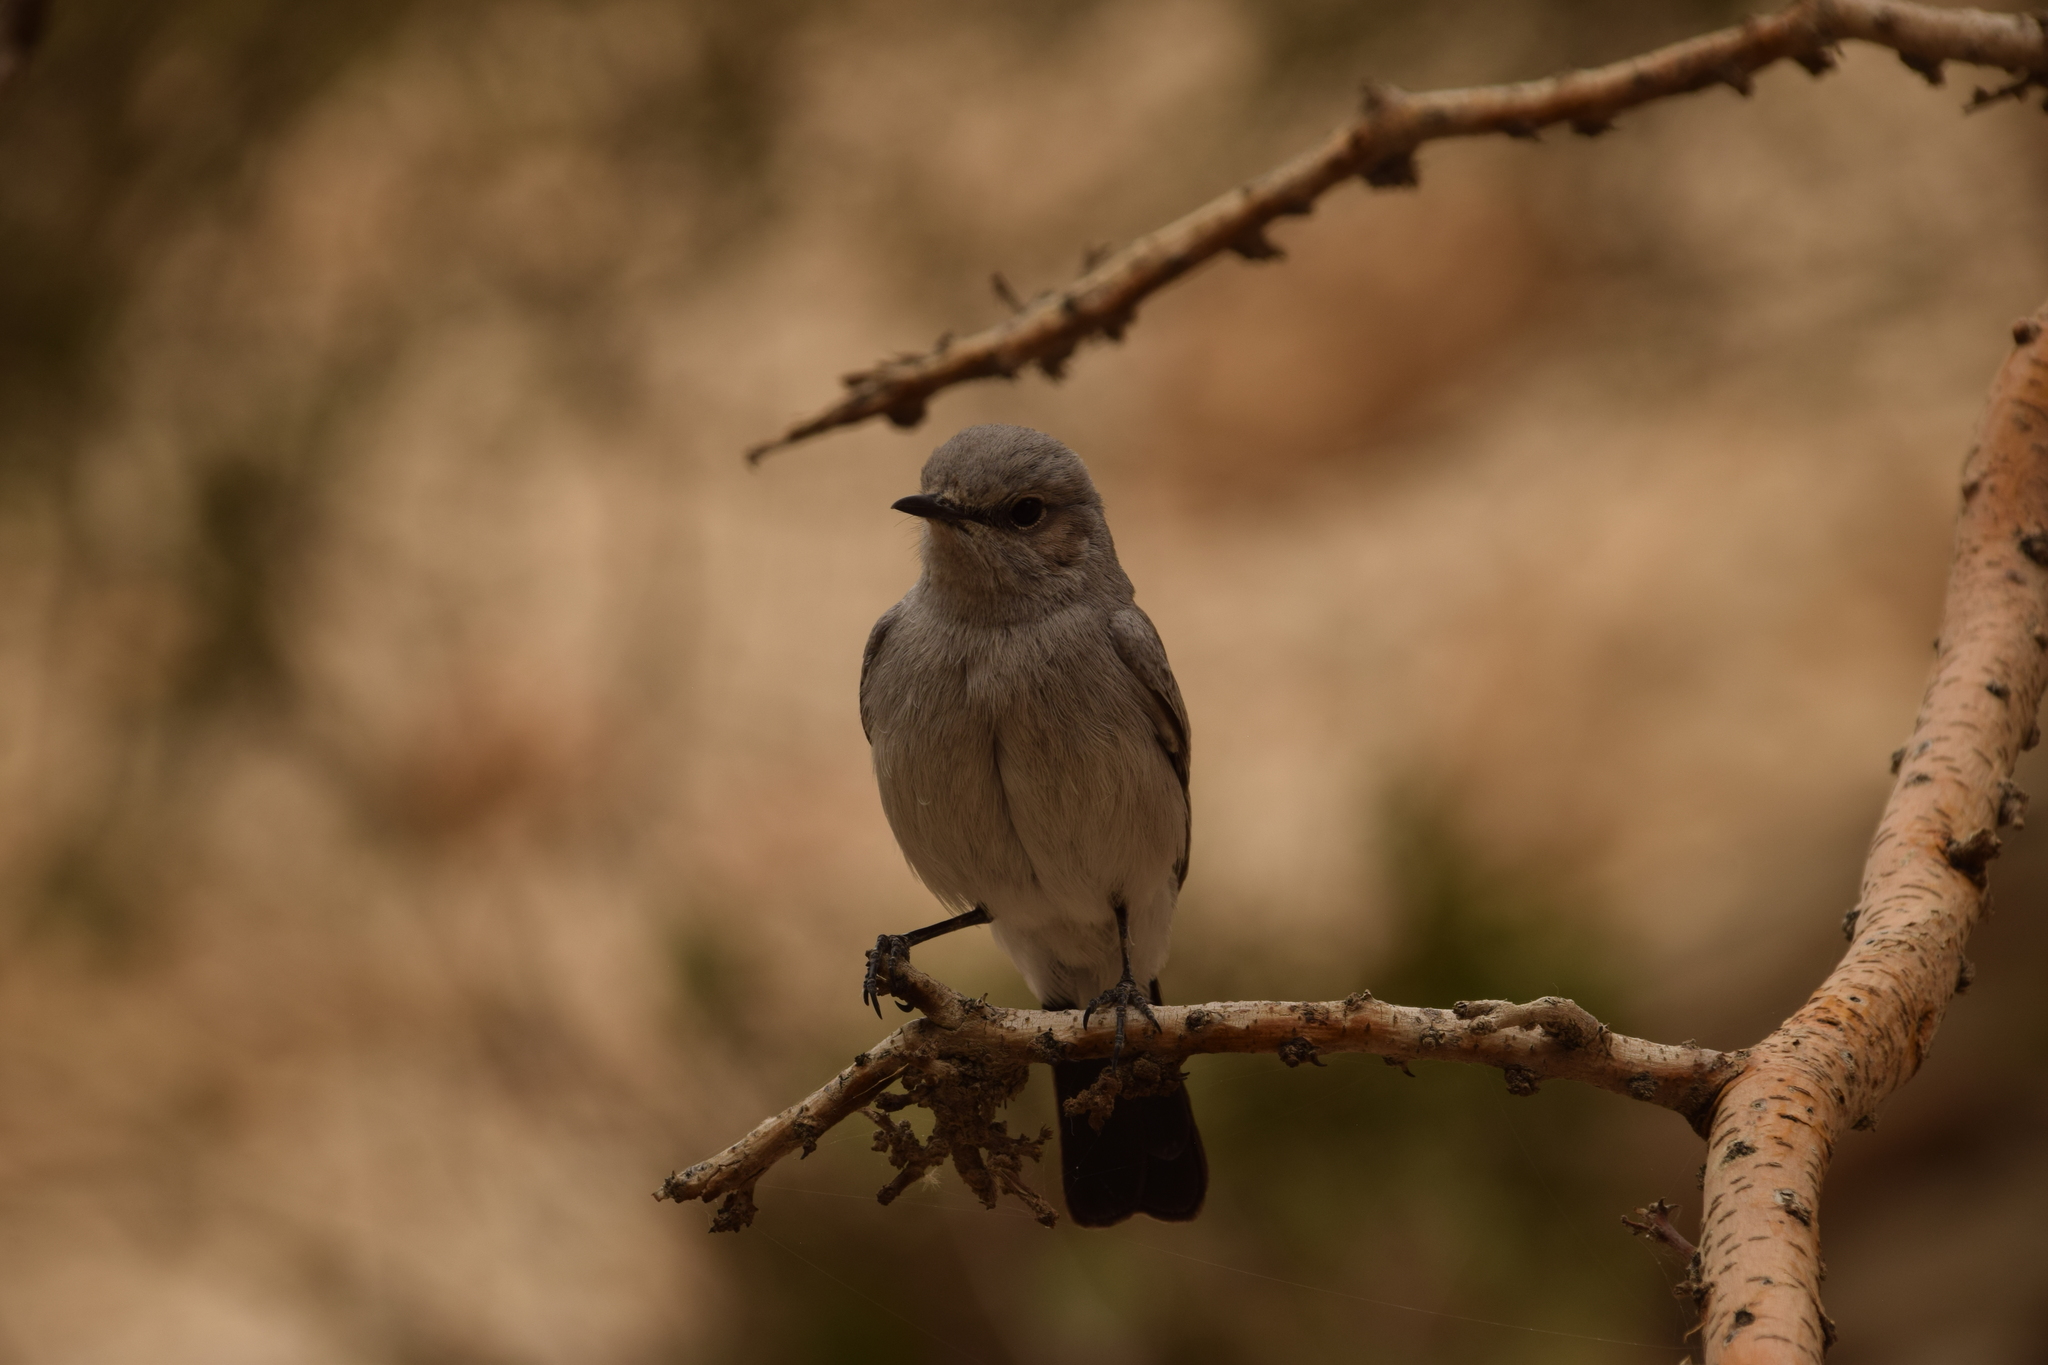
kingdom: Animalia
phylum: Chordata
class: Aves
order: Passeriformes
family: Muscicapidae
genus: Oenanthe
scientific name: Oenanthe melanura
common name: Blackstart
